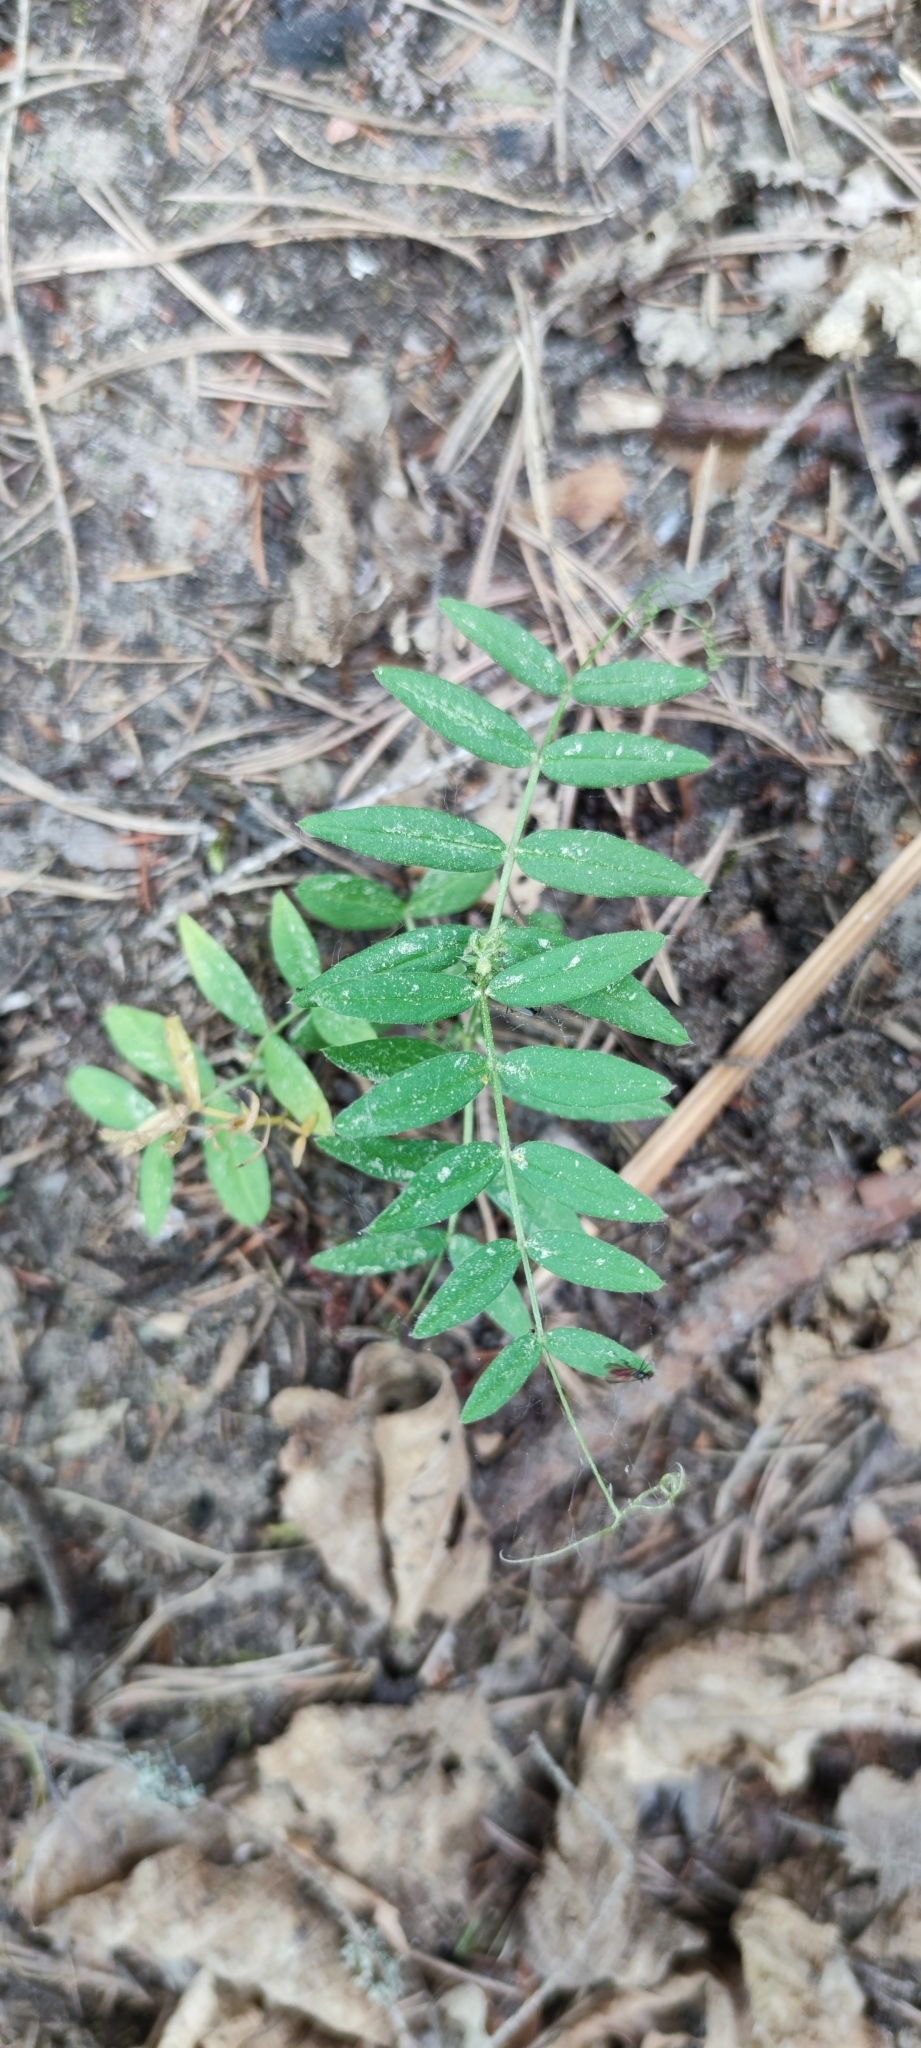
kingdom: Plantae
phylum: Tracheophyta
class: Magnoliopsida
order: Fabales
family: Fabaceae
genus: Vicia
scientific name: Vicia sepium
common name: Bush vetch
